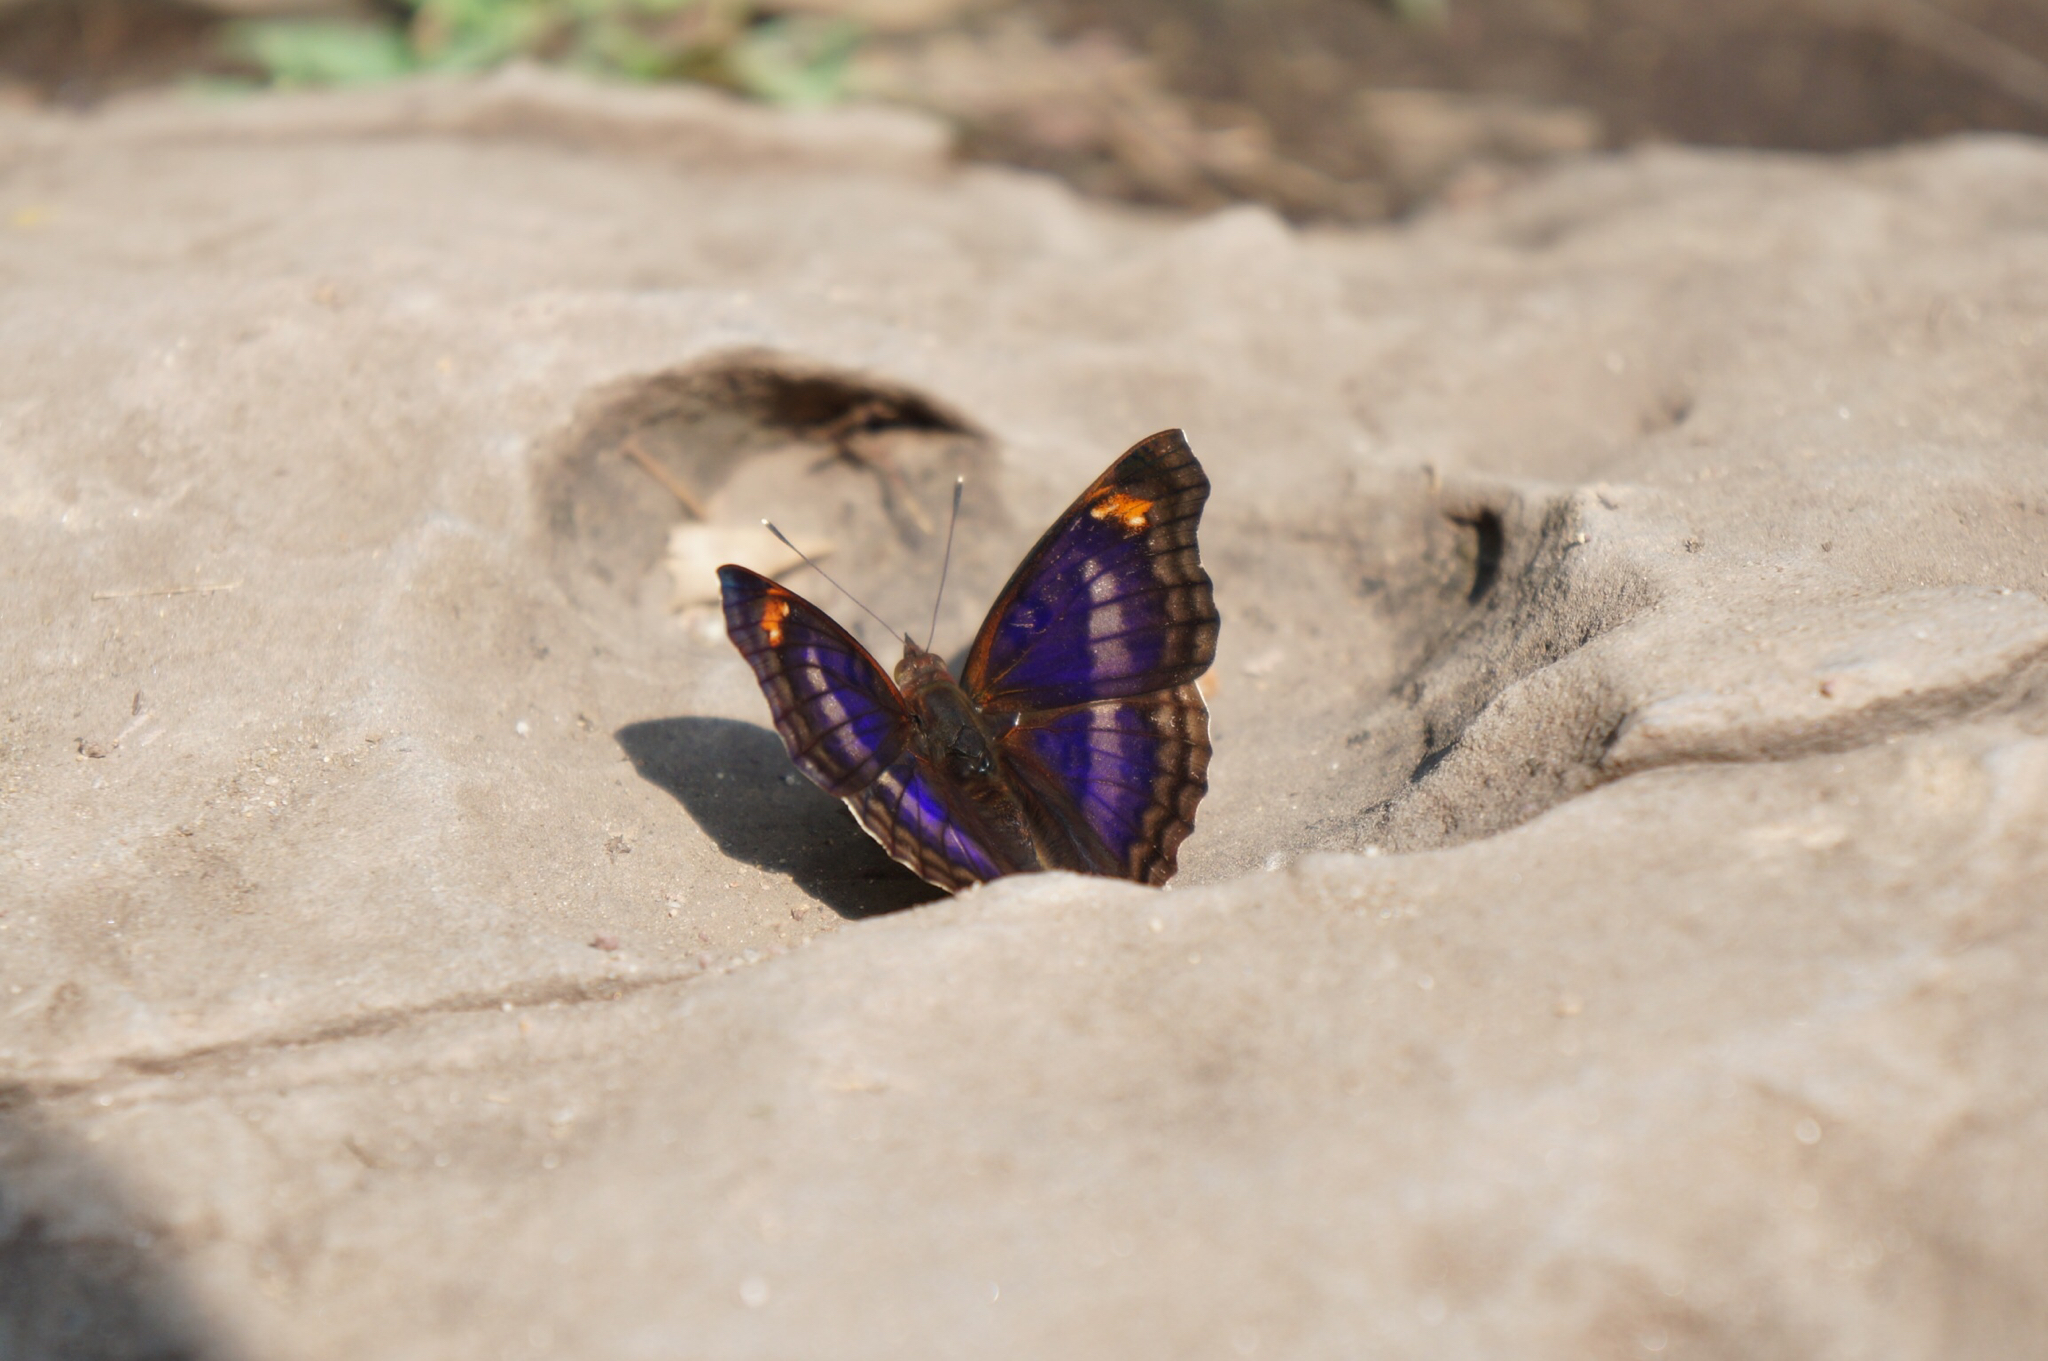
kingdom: Animalia
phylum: Arthropoda
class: Insecta
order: Lepidoptera
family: Nymphalidae
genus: Doxocopa
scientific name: Doxocopa pavon
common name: Pavon emperor
